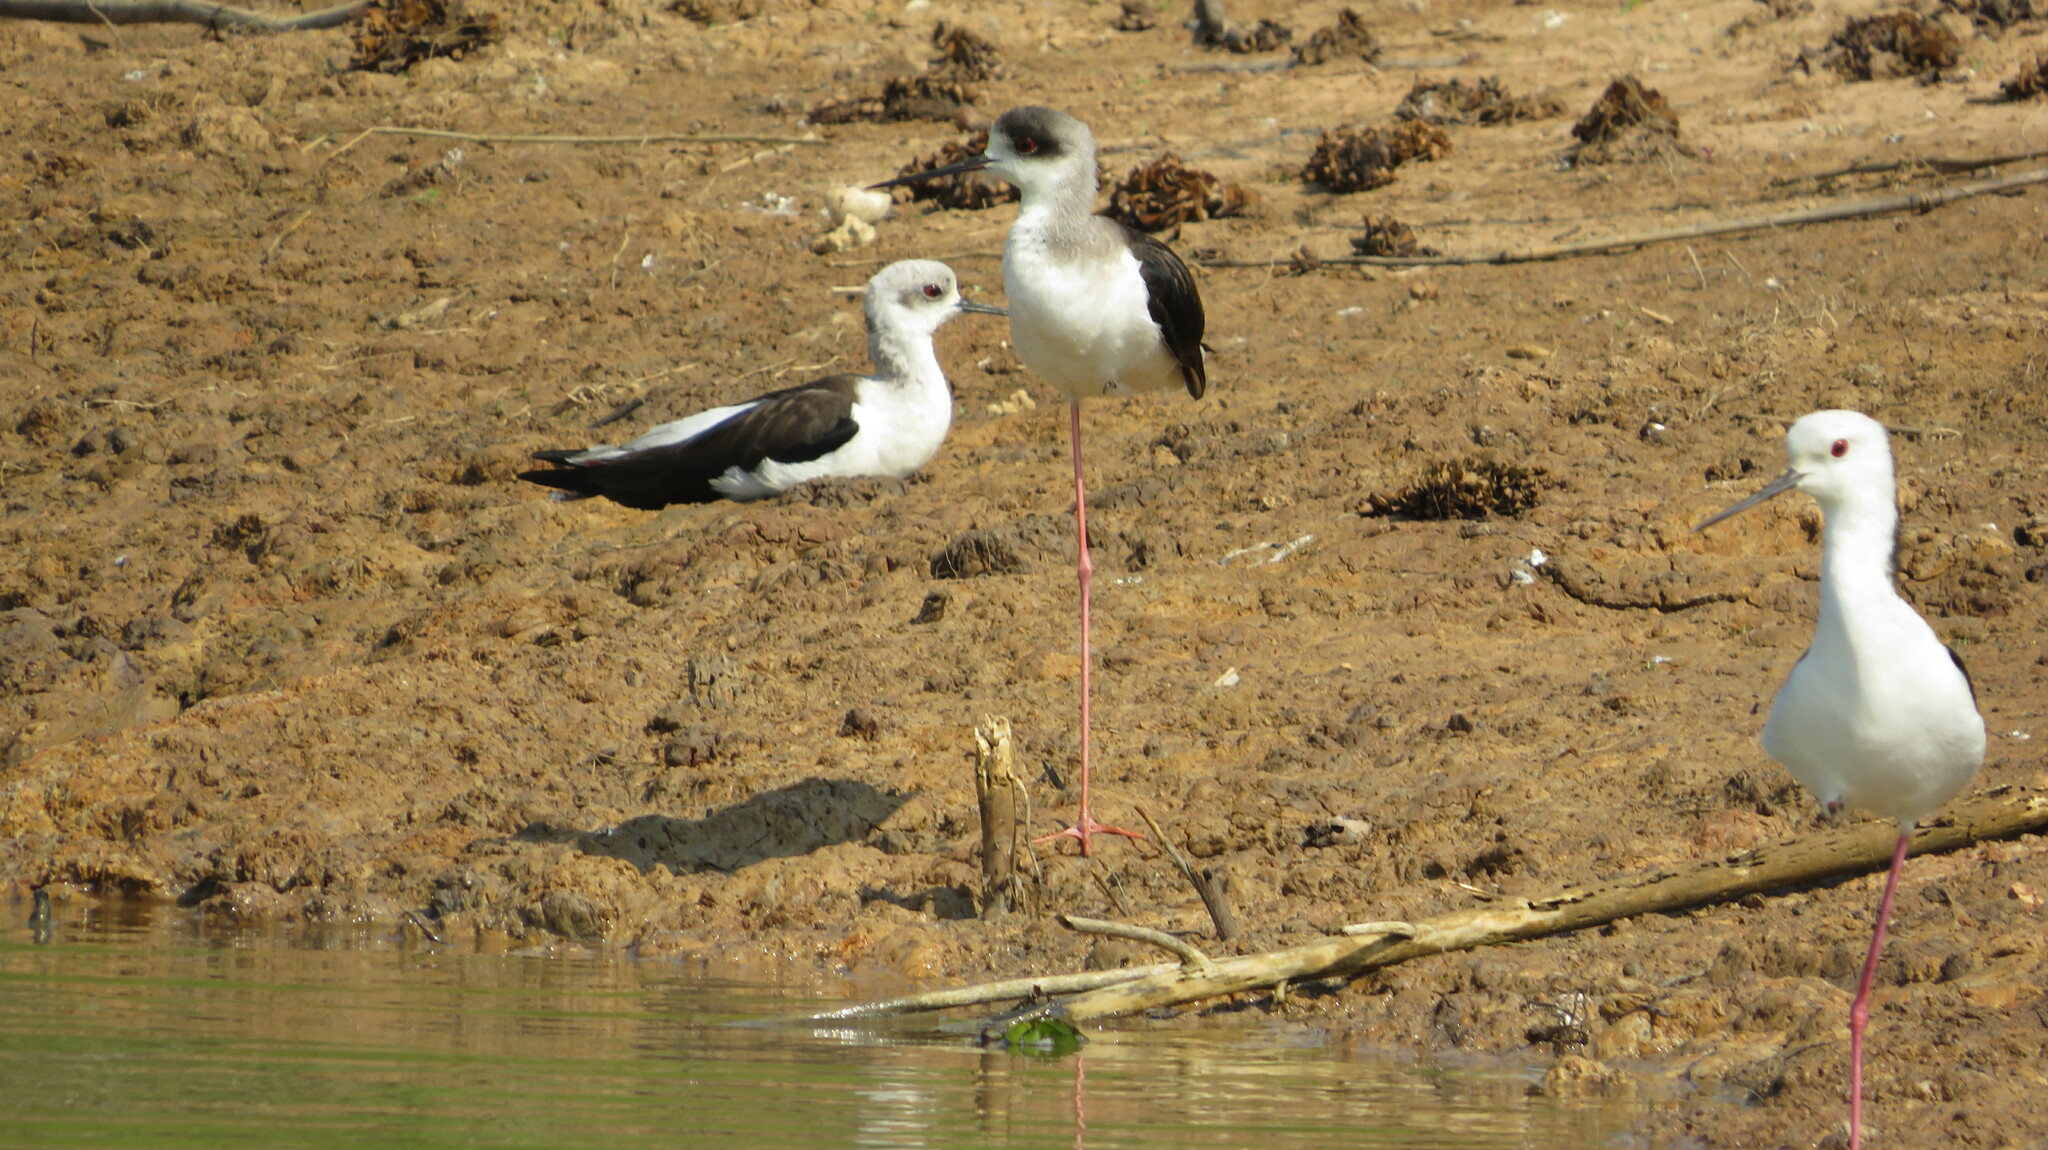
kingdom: Animalia
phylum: Chordata
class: Aves
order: Charadriiformes
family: Recurvirostridae
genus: Himantopus
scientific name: Himantopus himantopus
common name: Black-winged stilt
